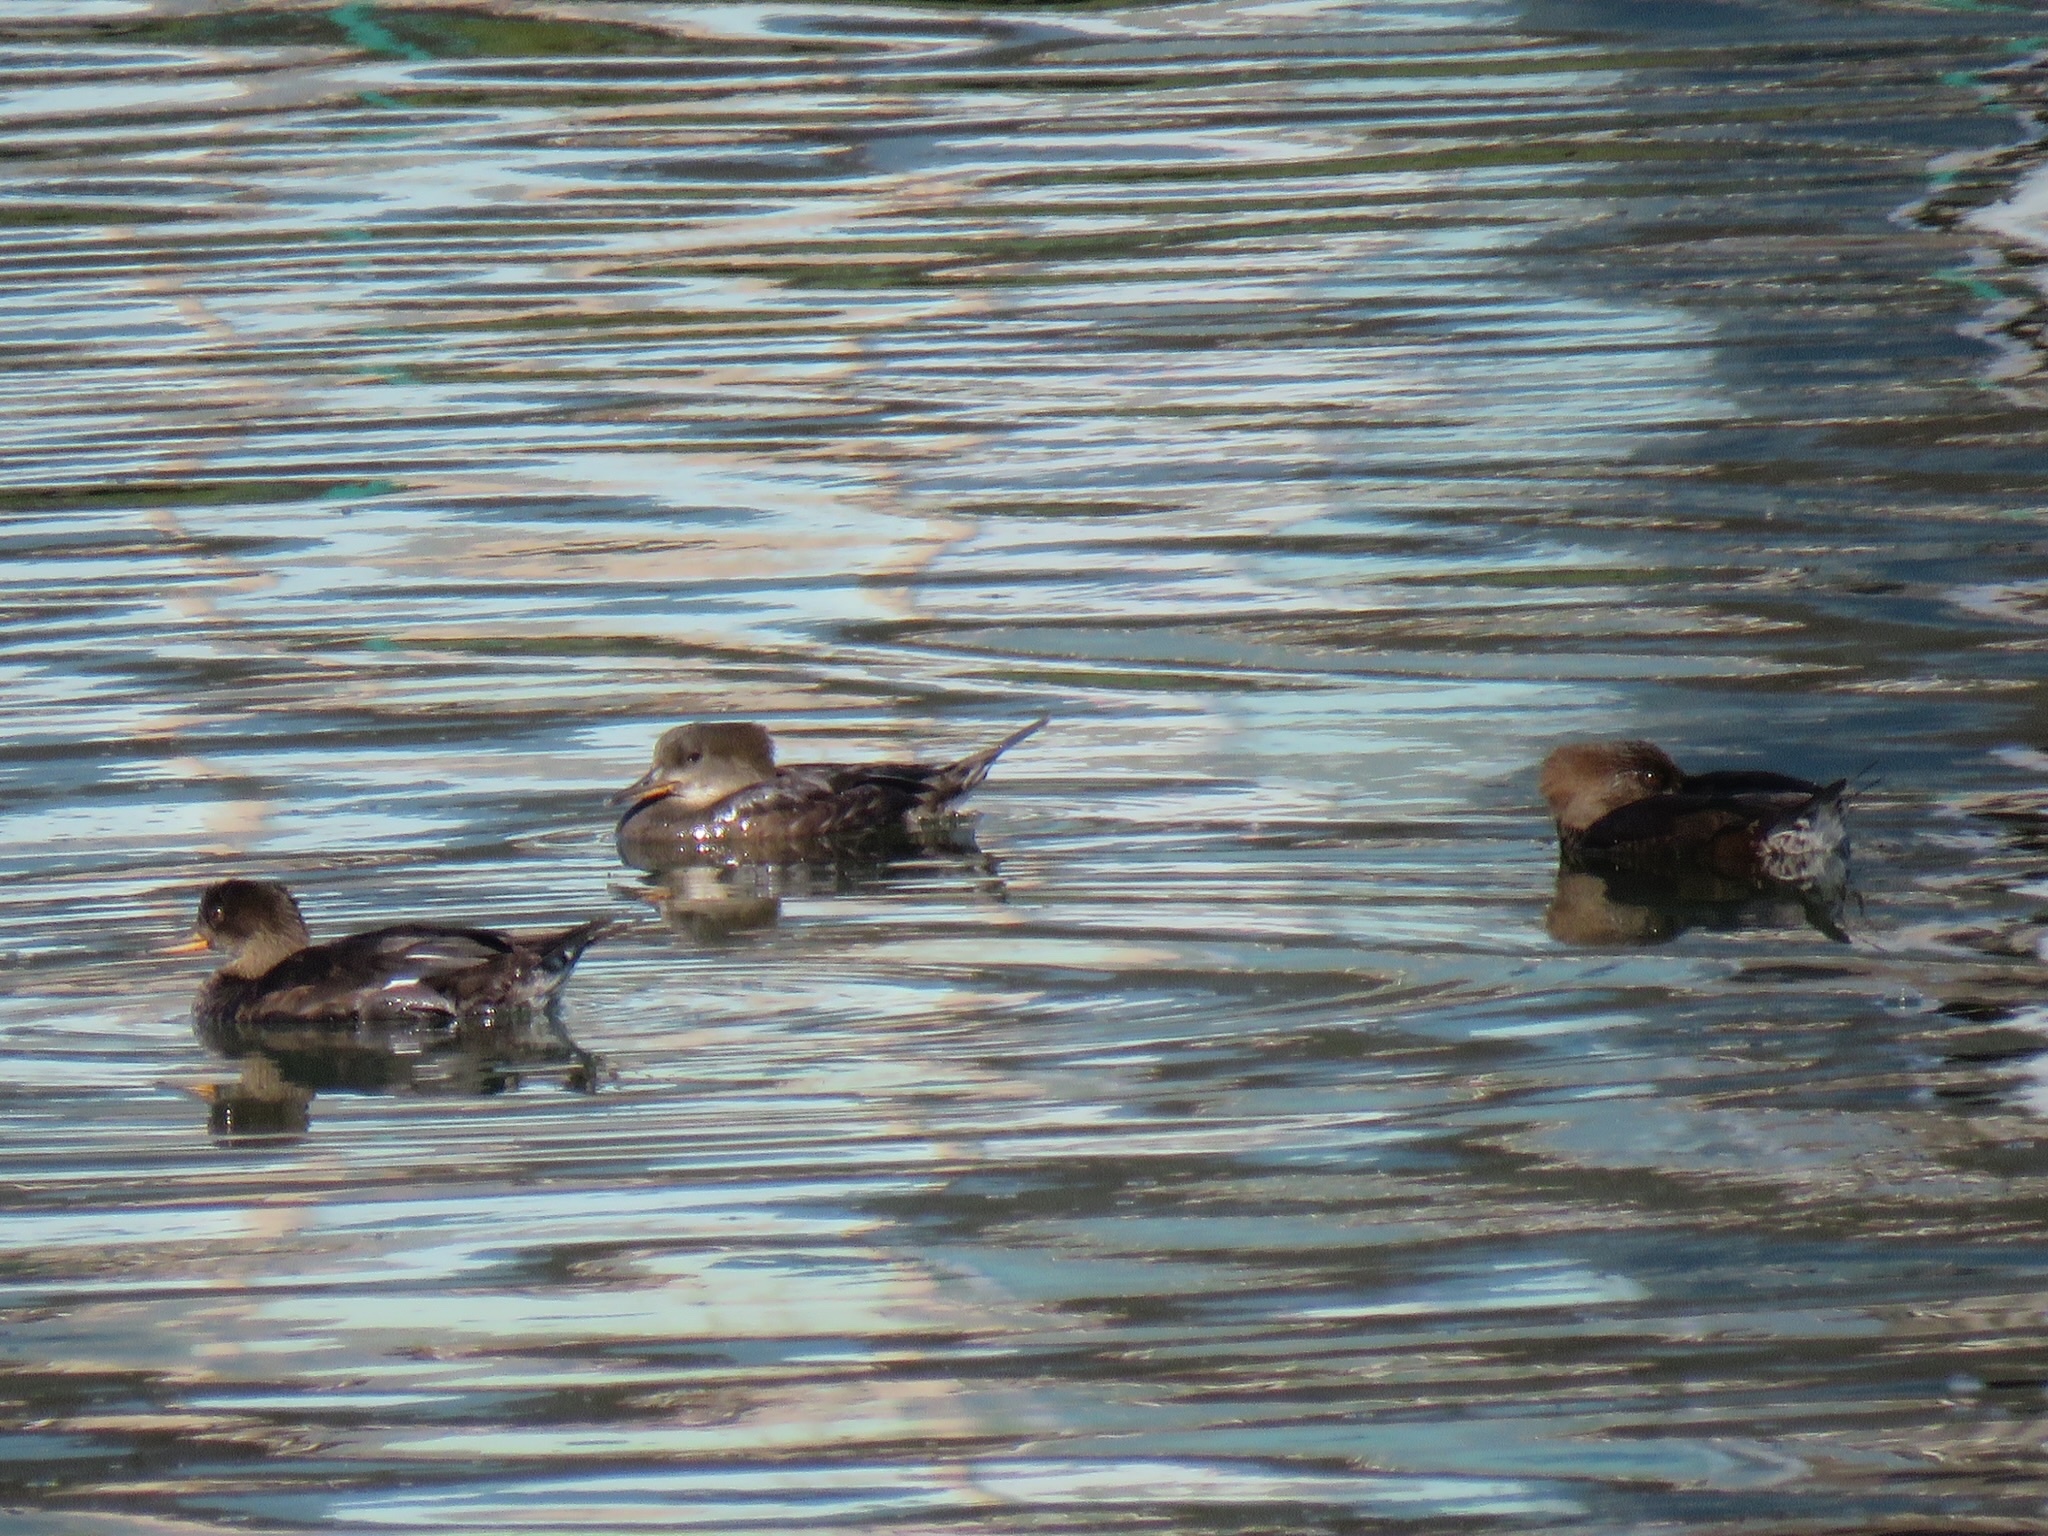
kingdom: Animalia
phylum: Chordata
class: Aves
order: Anseriformes
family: Anatidae
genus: Lophodytes
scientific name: Lophodytes cucullatus
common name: Hooded merganser
